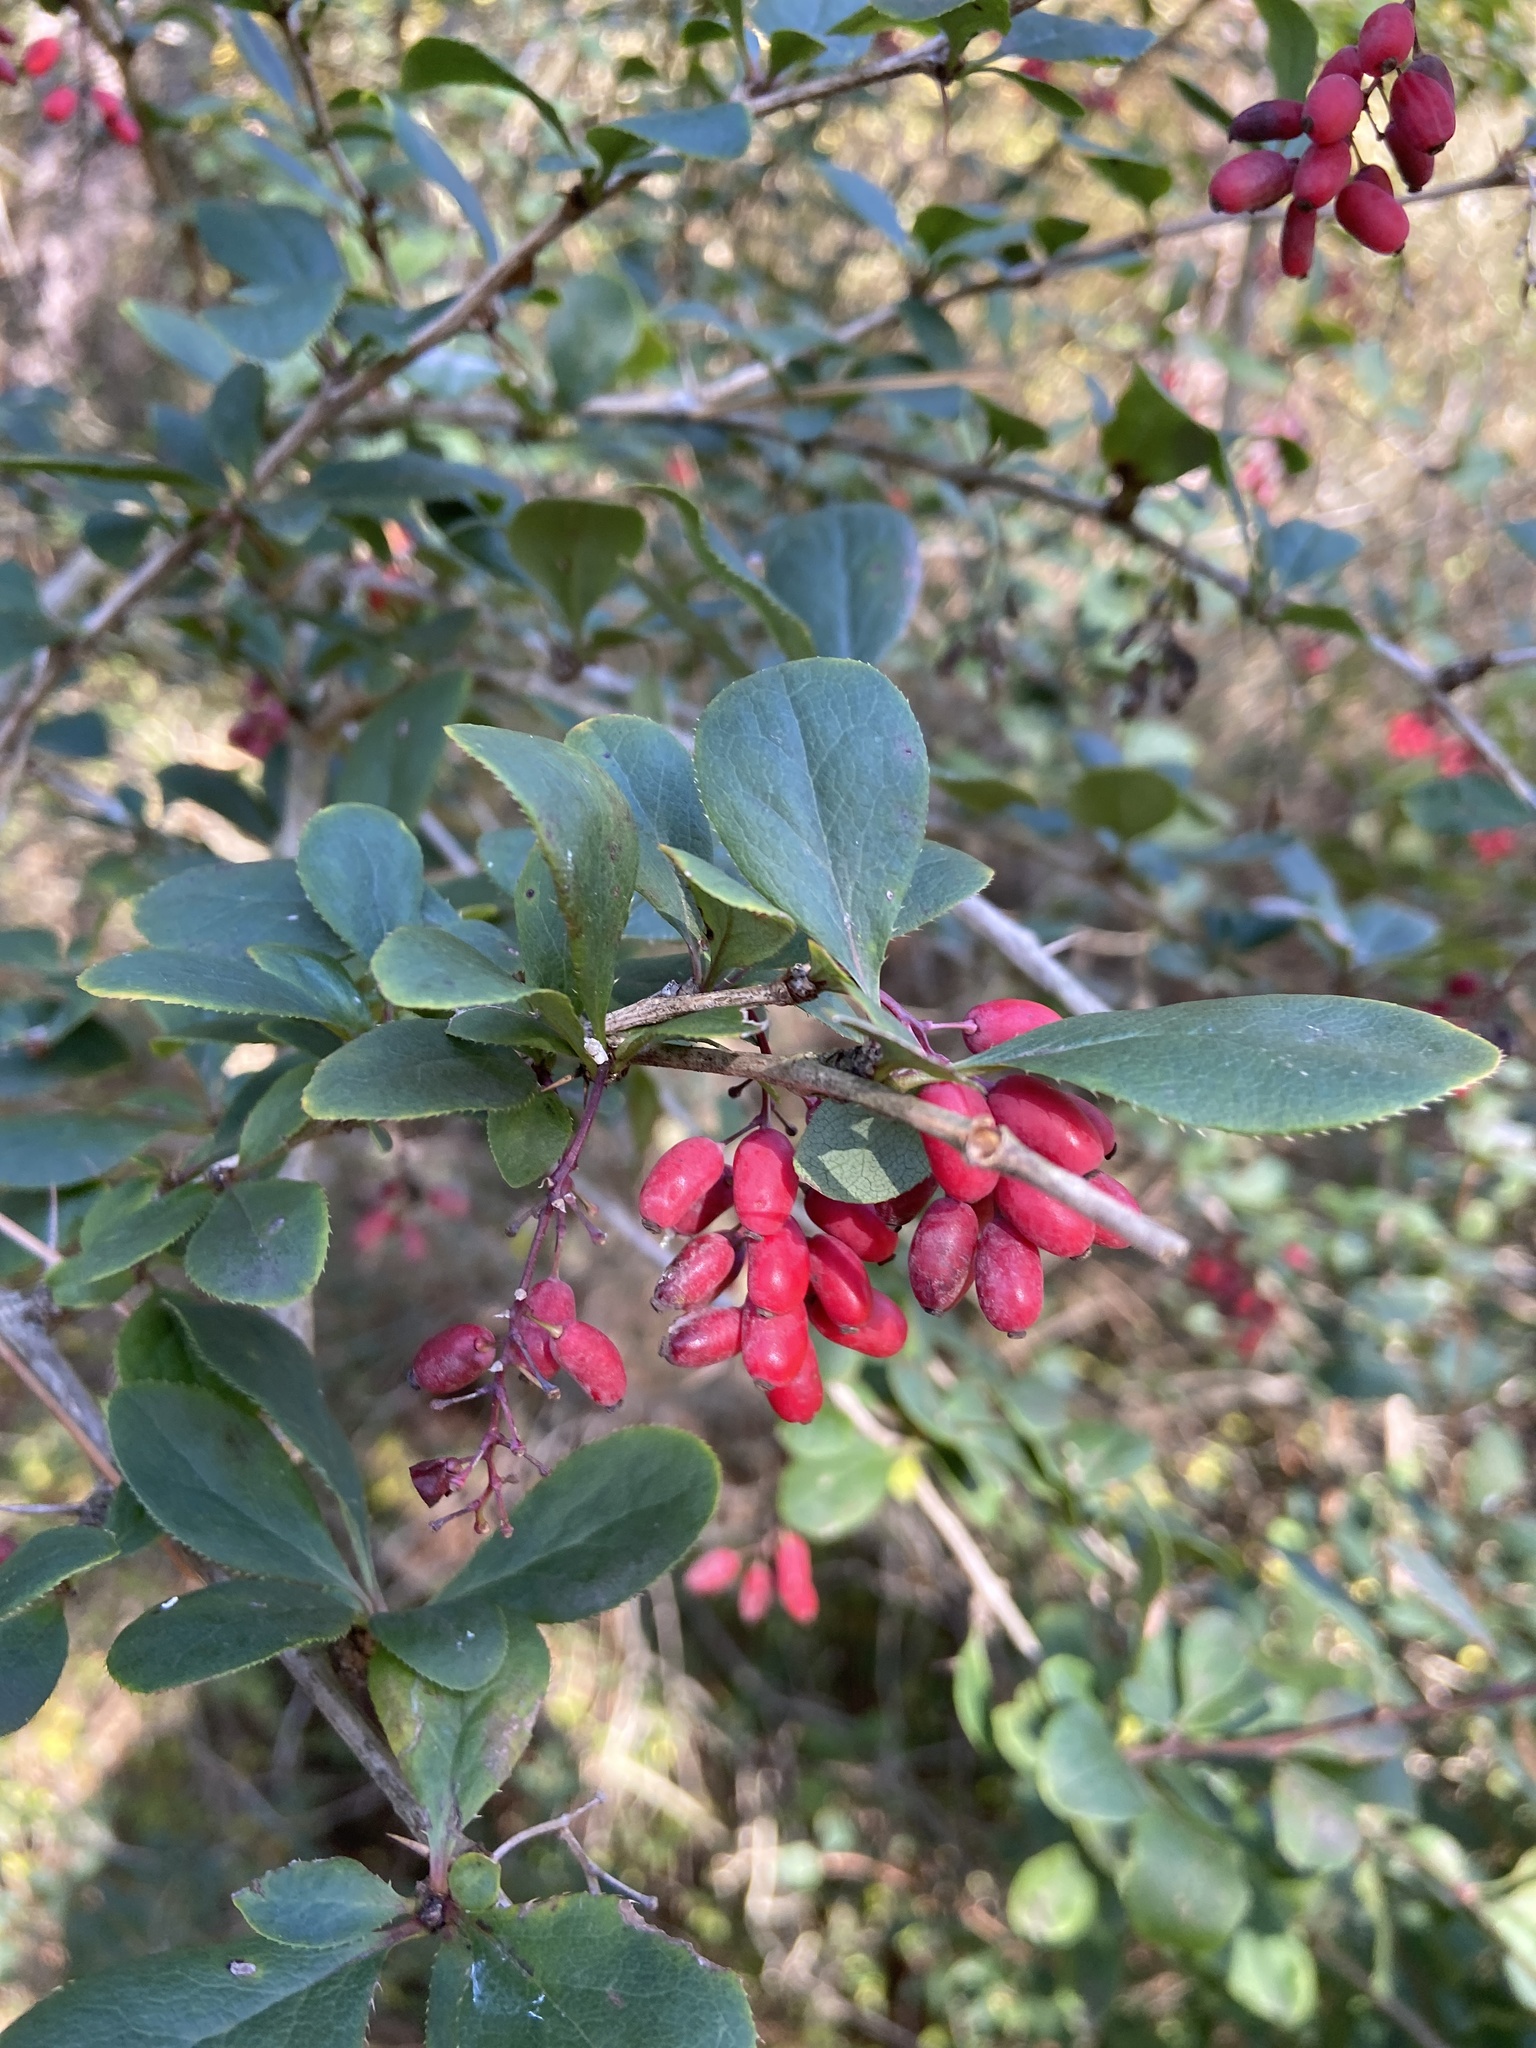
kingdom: Plantae
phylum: Tracheophyta
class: Magnoliopsida
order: Ranunculales
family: Berberidaceae
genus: Berberis
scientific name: Berberis vulgaris
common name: Barberry
